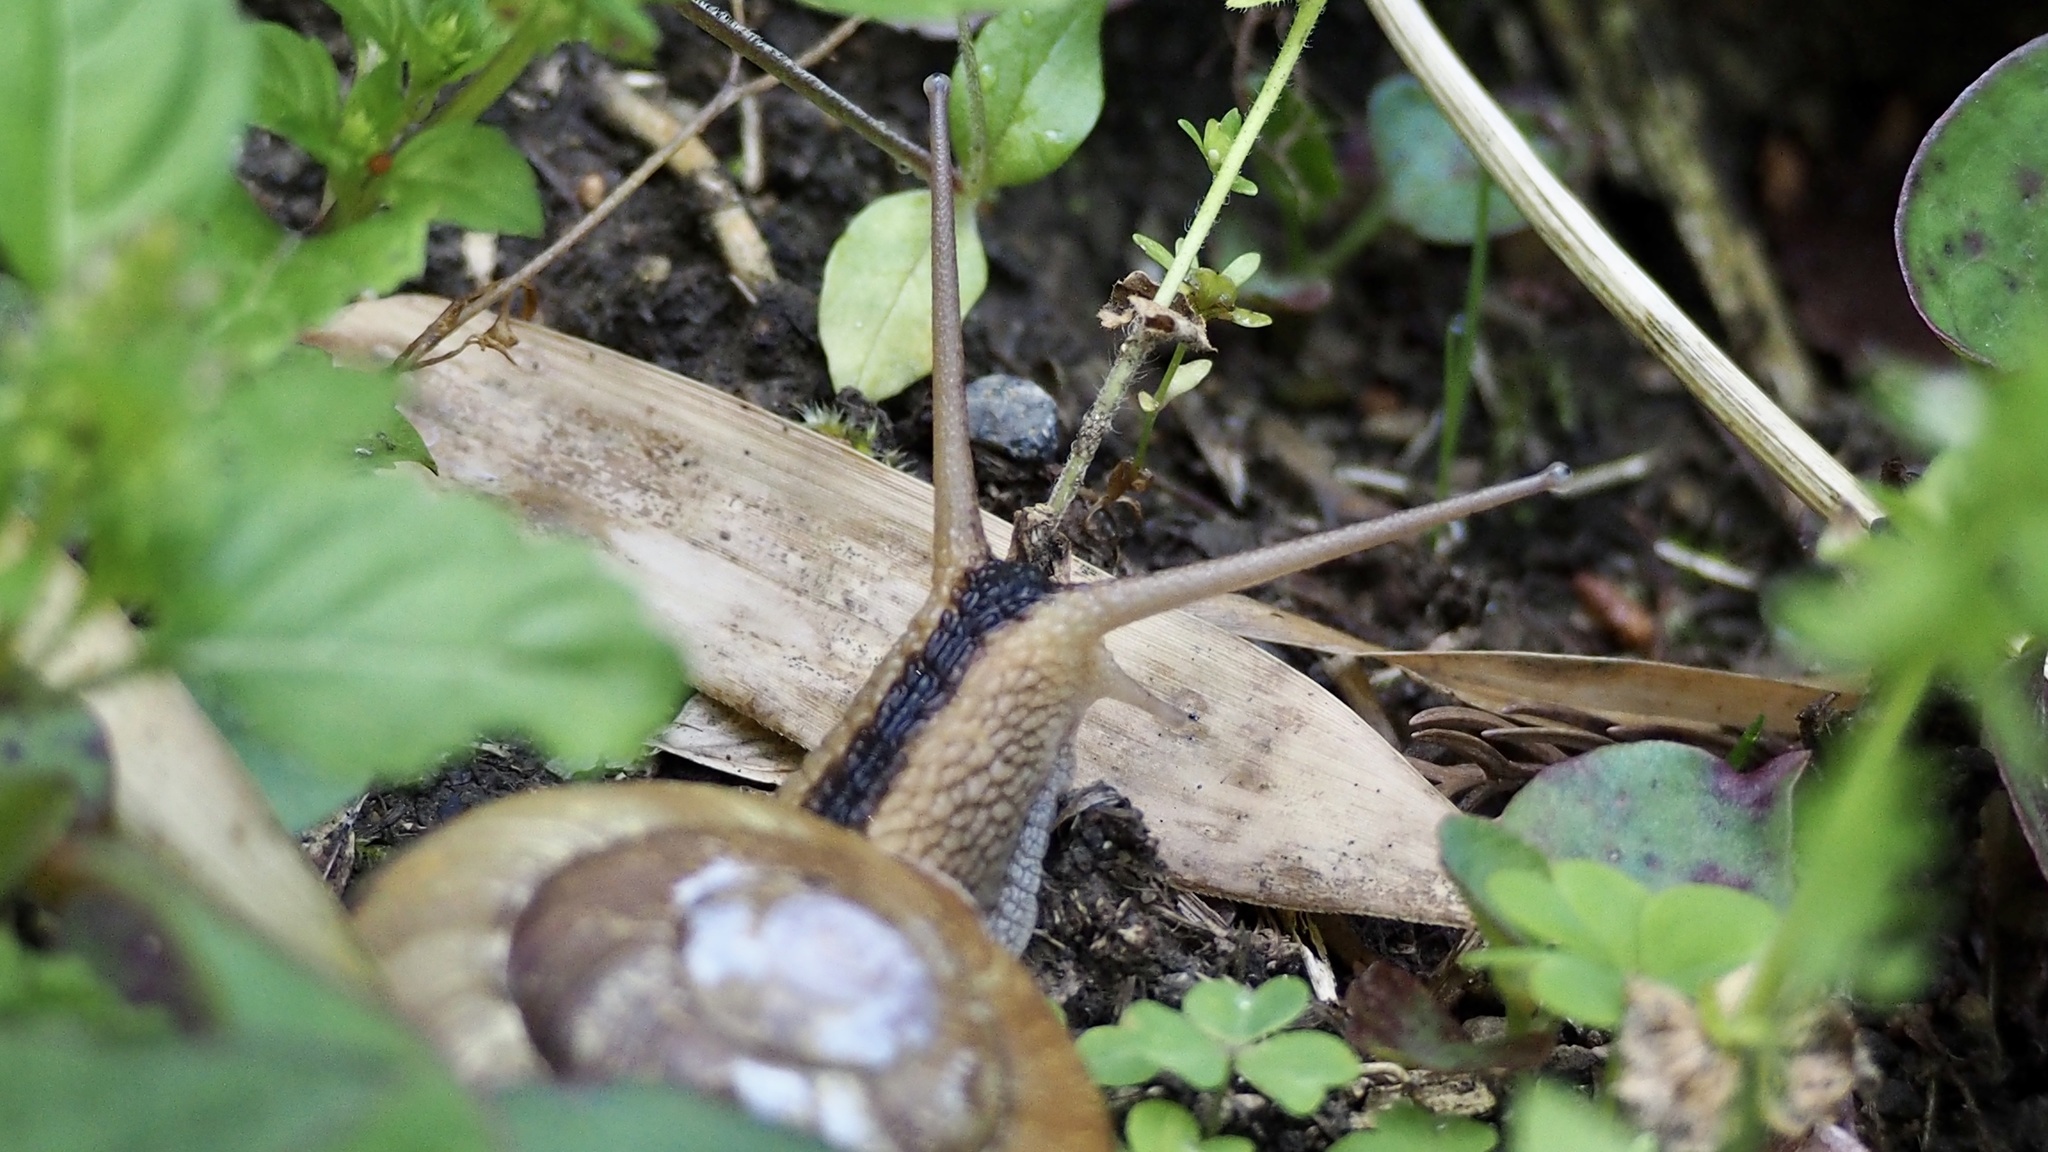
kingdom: Animalia
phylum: Mollusca
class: Gastropoda
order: Stylommatophora
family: Camaenidae
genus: Euhadra
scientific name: Euhadra sandai
